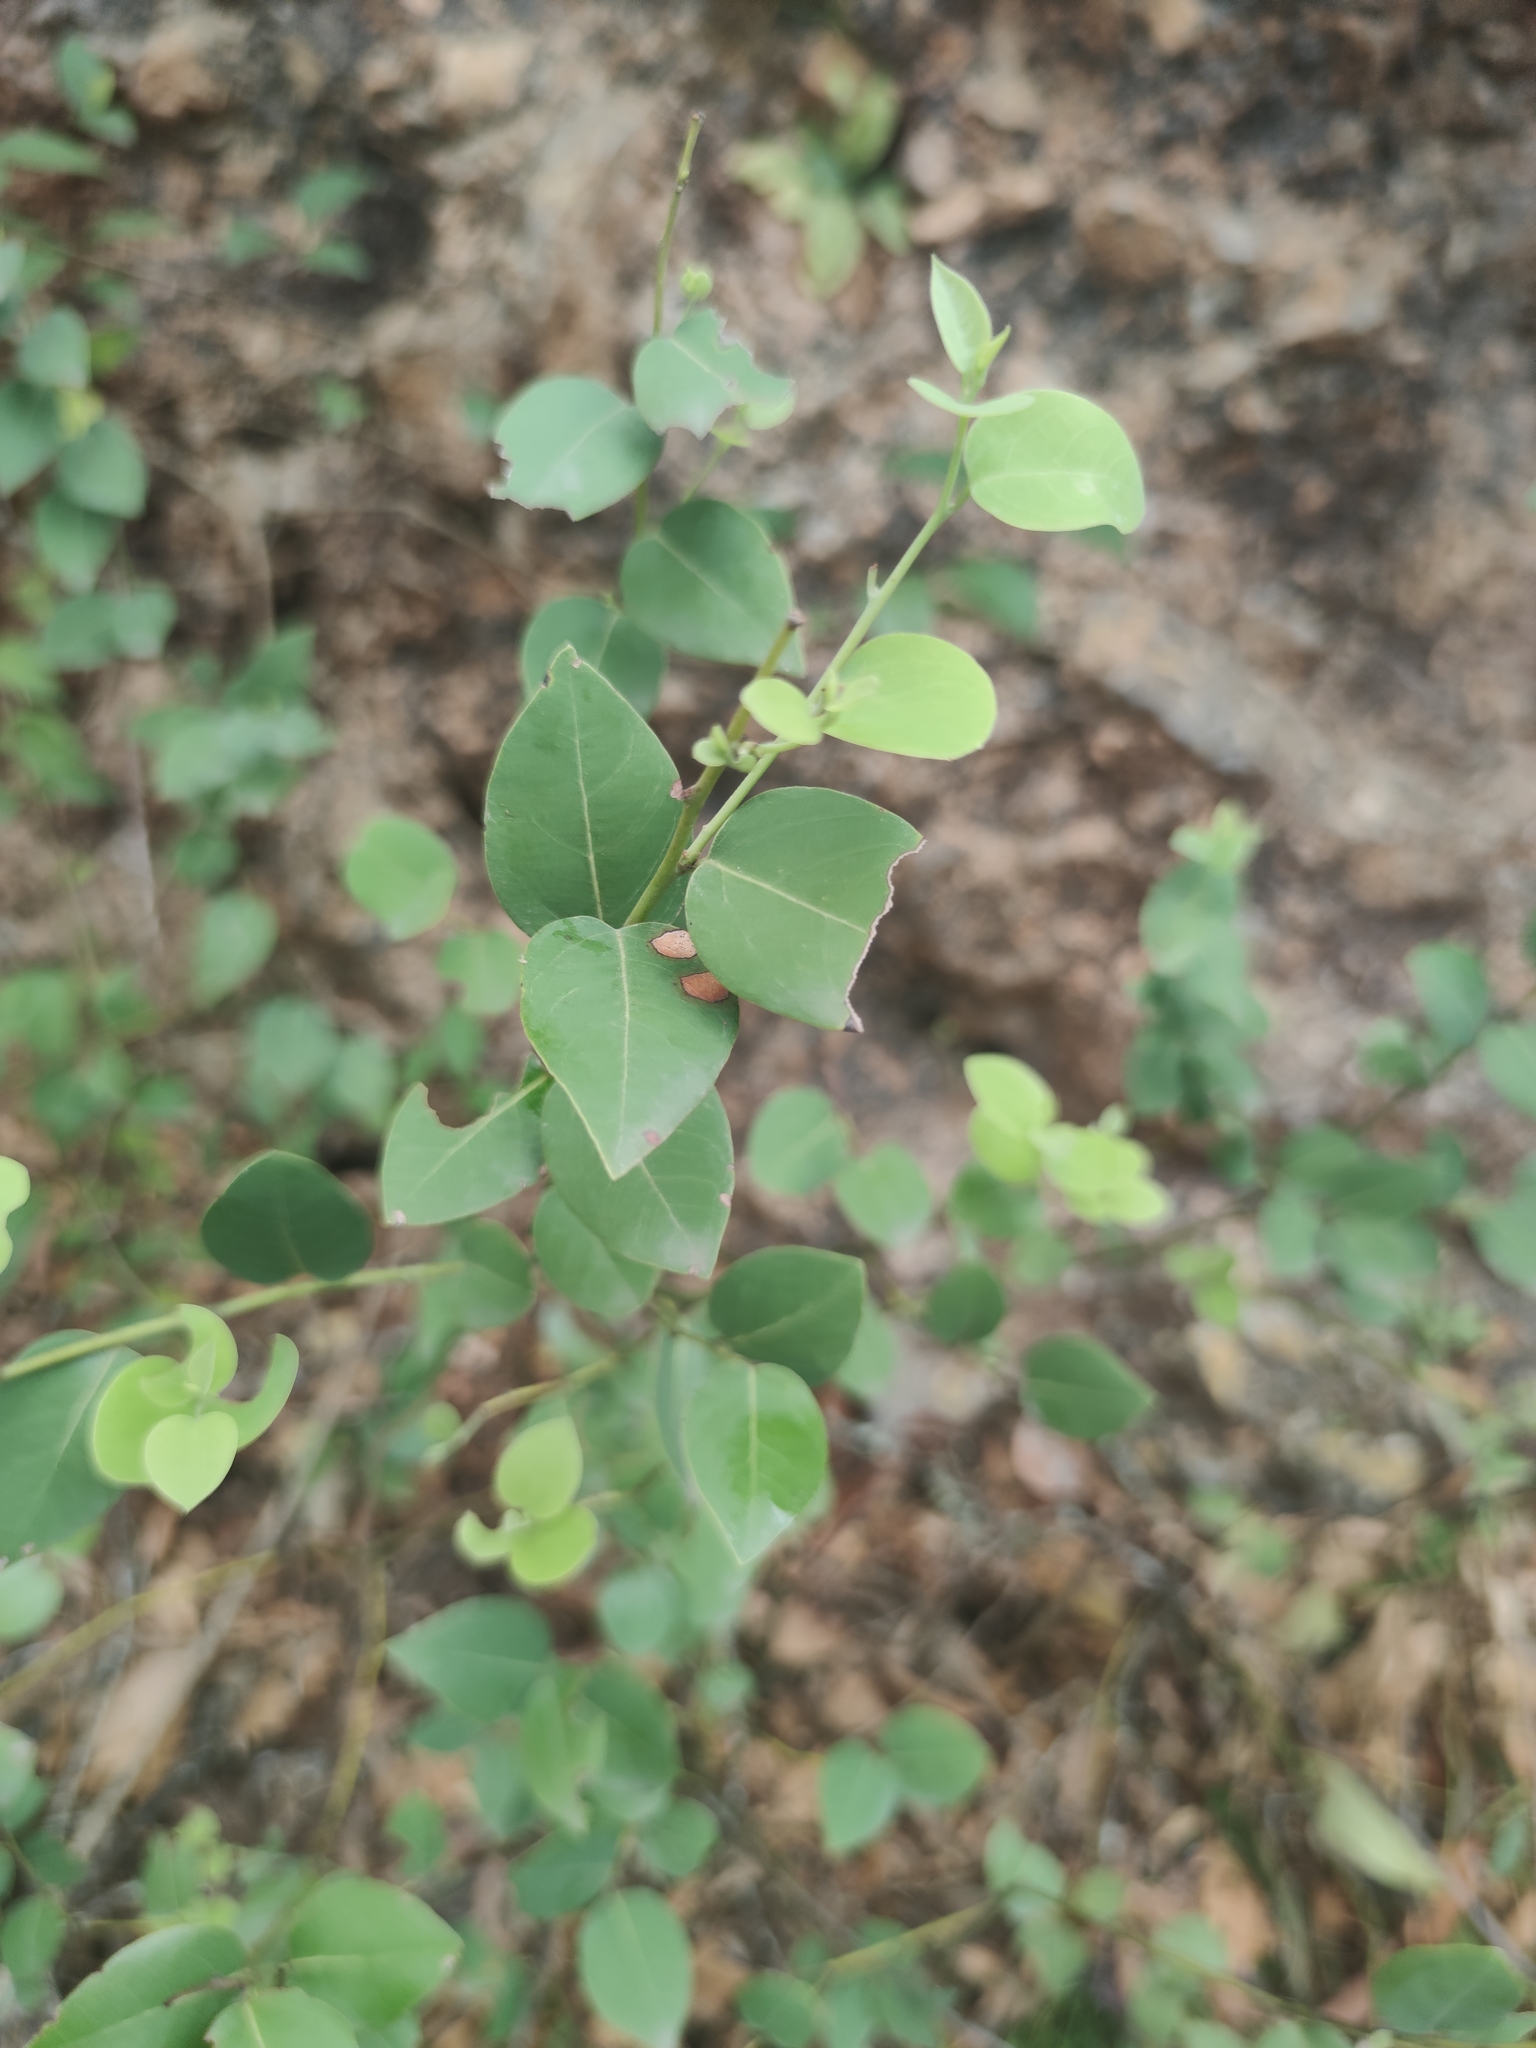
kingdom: Plantae
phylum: Tracheophyta
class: Magnoliopsida
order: Laurales
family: Lauraceae
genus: Litsea
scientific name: Litsea novoleontis
